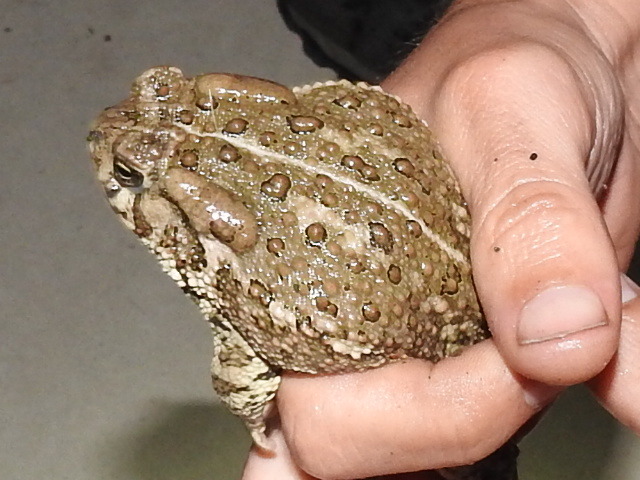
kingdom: Animalia
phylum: Chordata
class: Amphibia
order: Anura
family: Bufonidae
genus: Anaxyrus
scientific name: Anaxyrus woodhousii
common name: Woodhouse's toad
